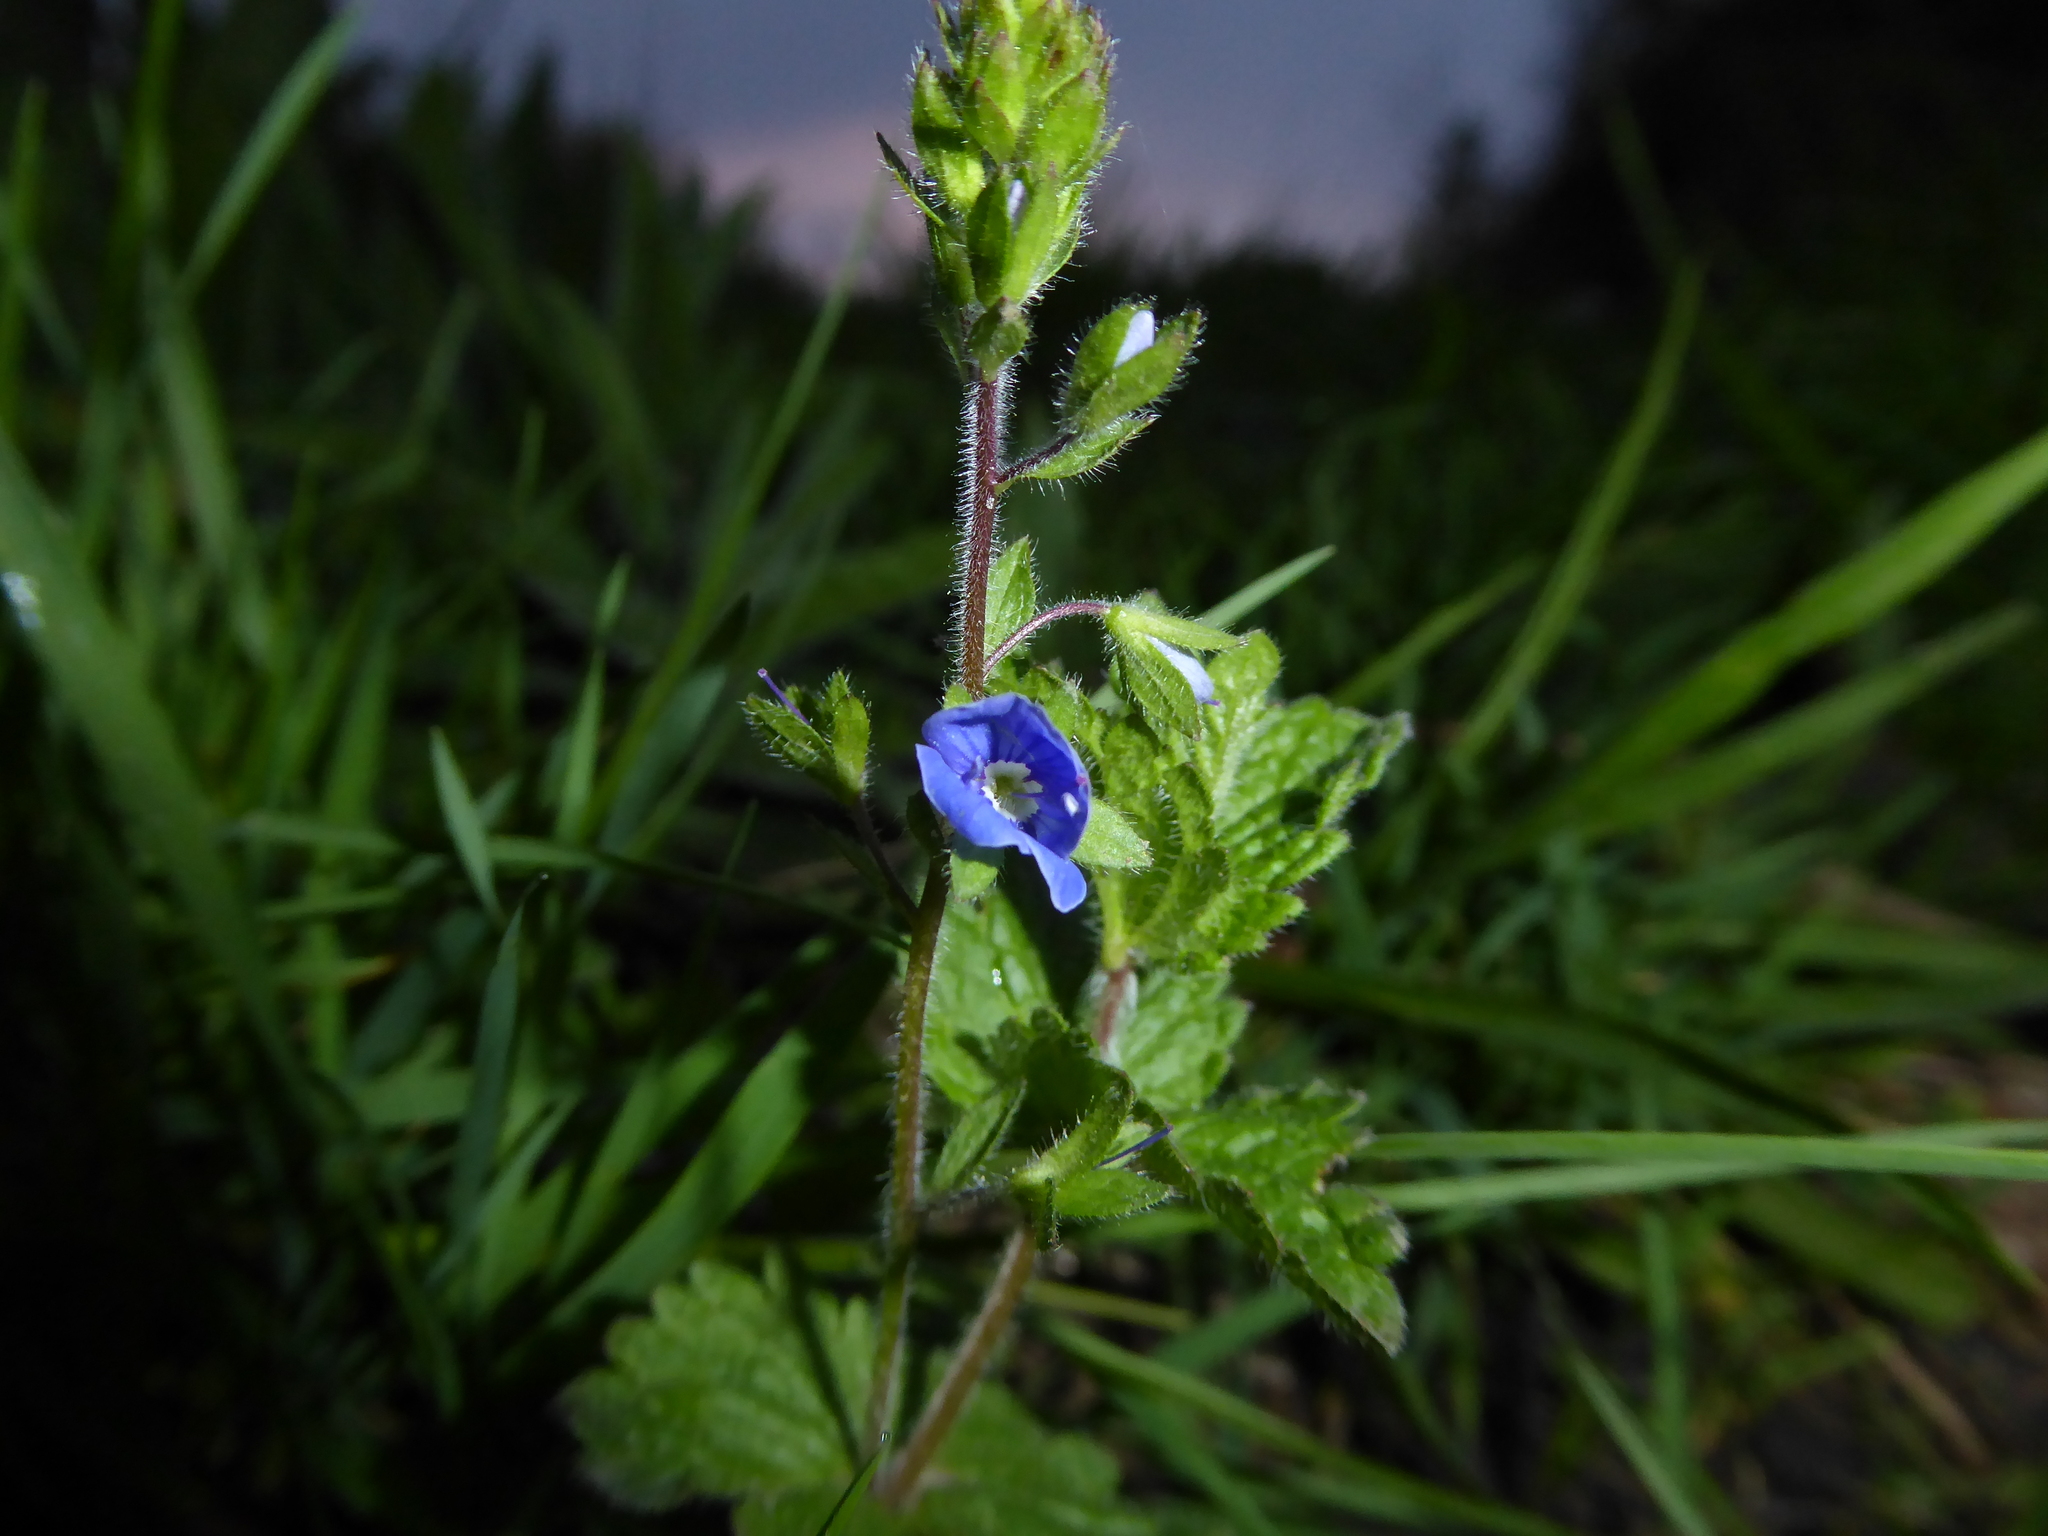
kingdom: Plantae
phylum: Tracheophyta
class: Magnoliopsida
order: Lamiales
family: Plantaginaceae
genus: Veronica
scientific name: Veronica chamaedrys
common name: Germander speedwell
